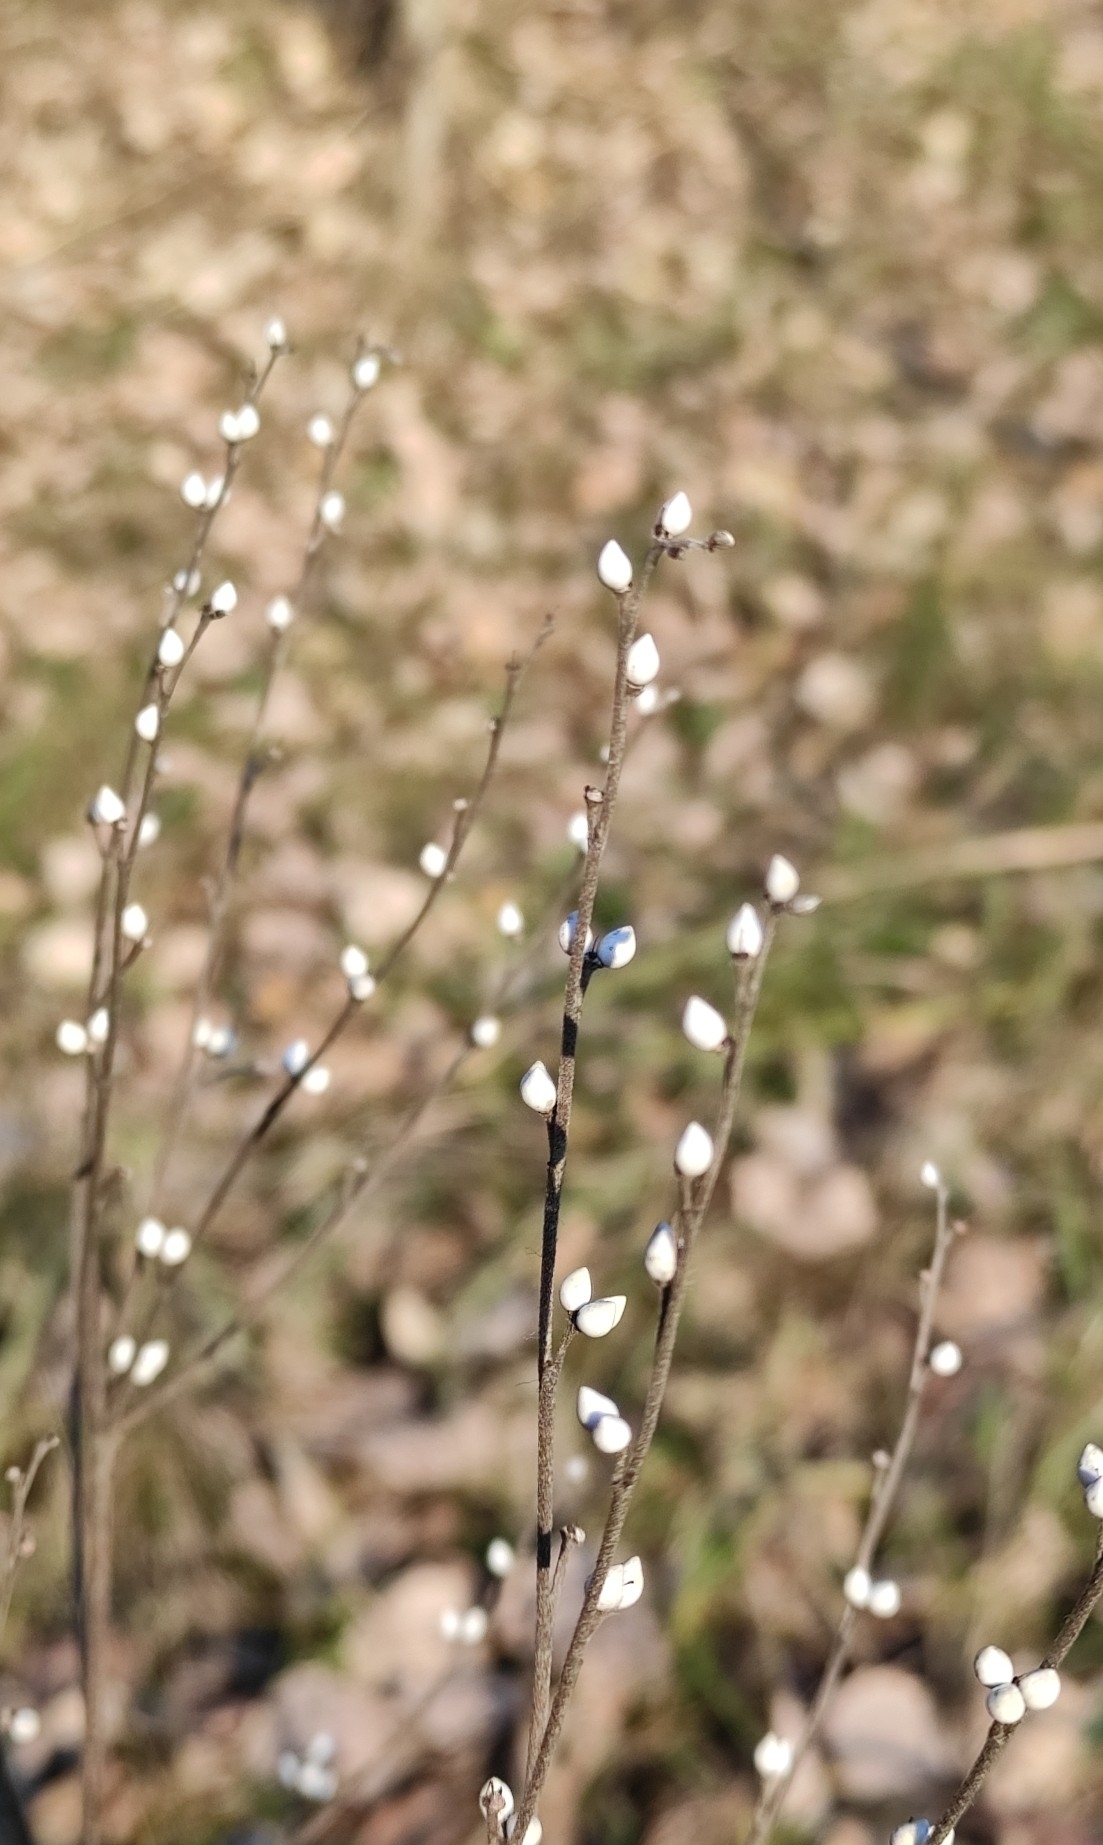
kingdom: Plantae
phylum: Tracheophyta
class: Magnoliopsida
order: Boraginales
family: Boraginaceae
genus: Lithospermum
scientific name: Lithospermum officinale
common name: Common gromwell
